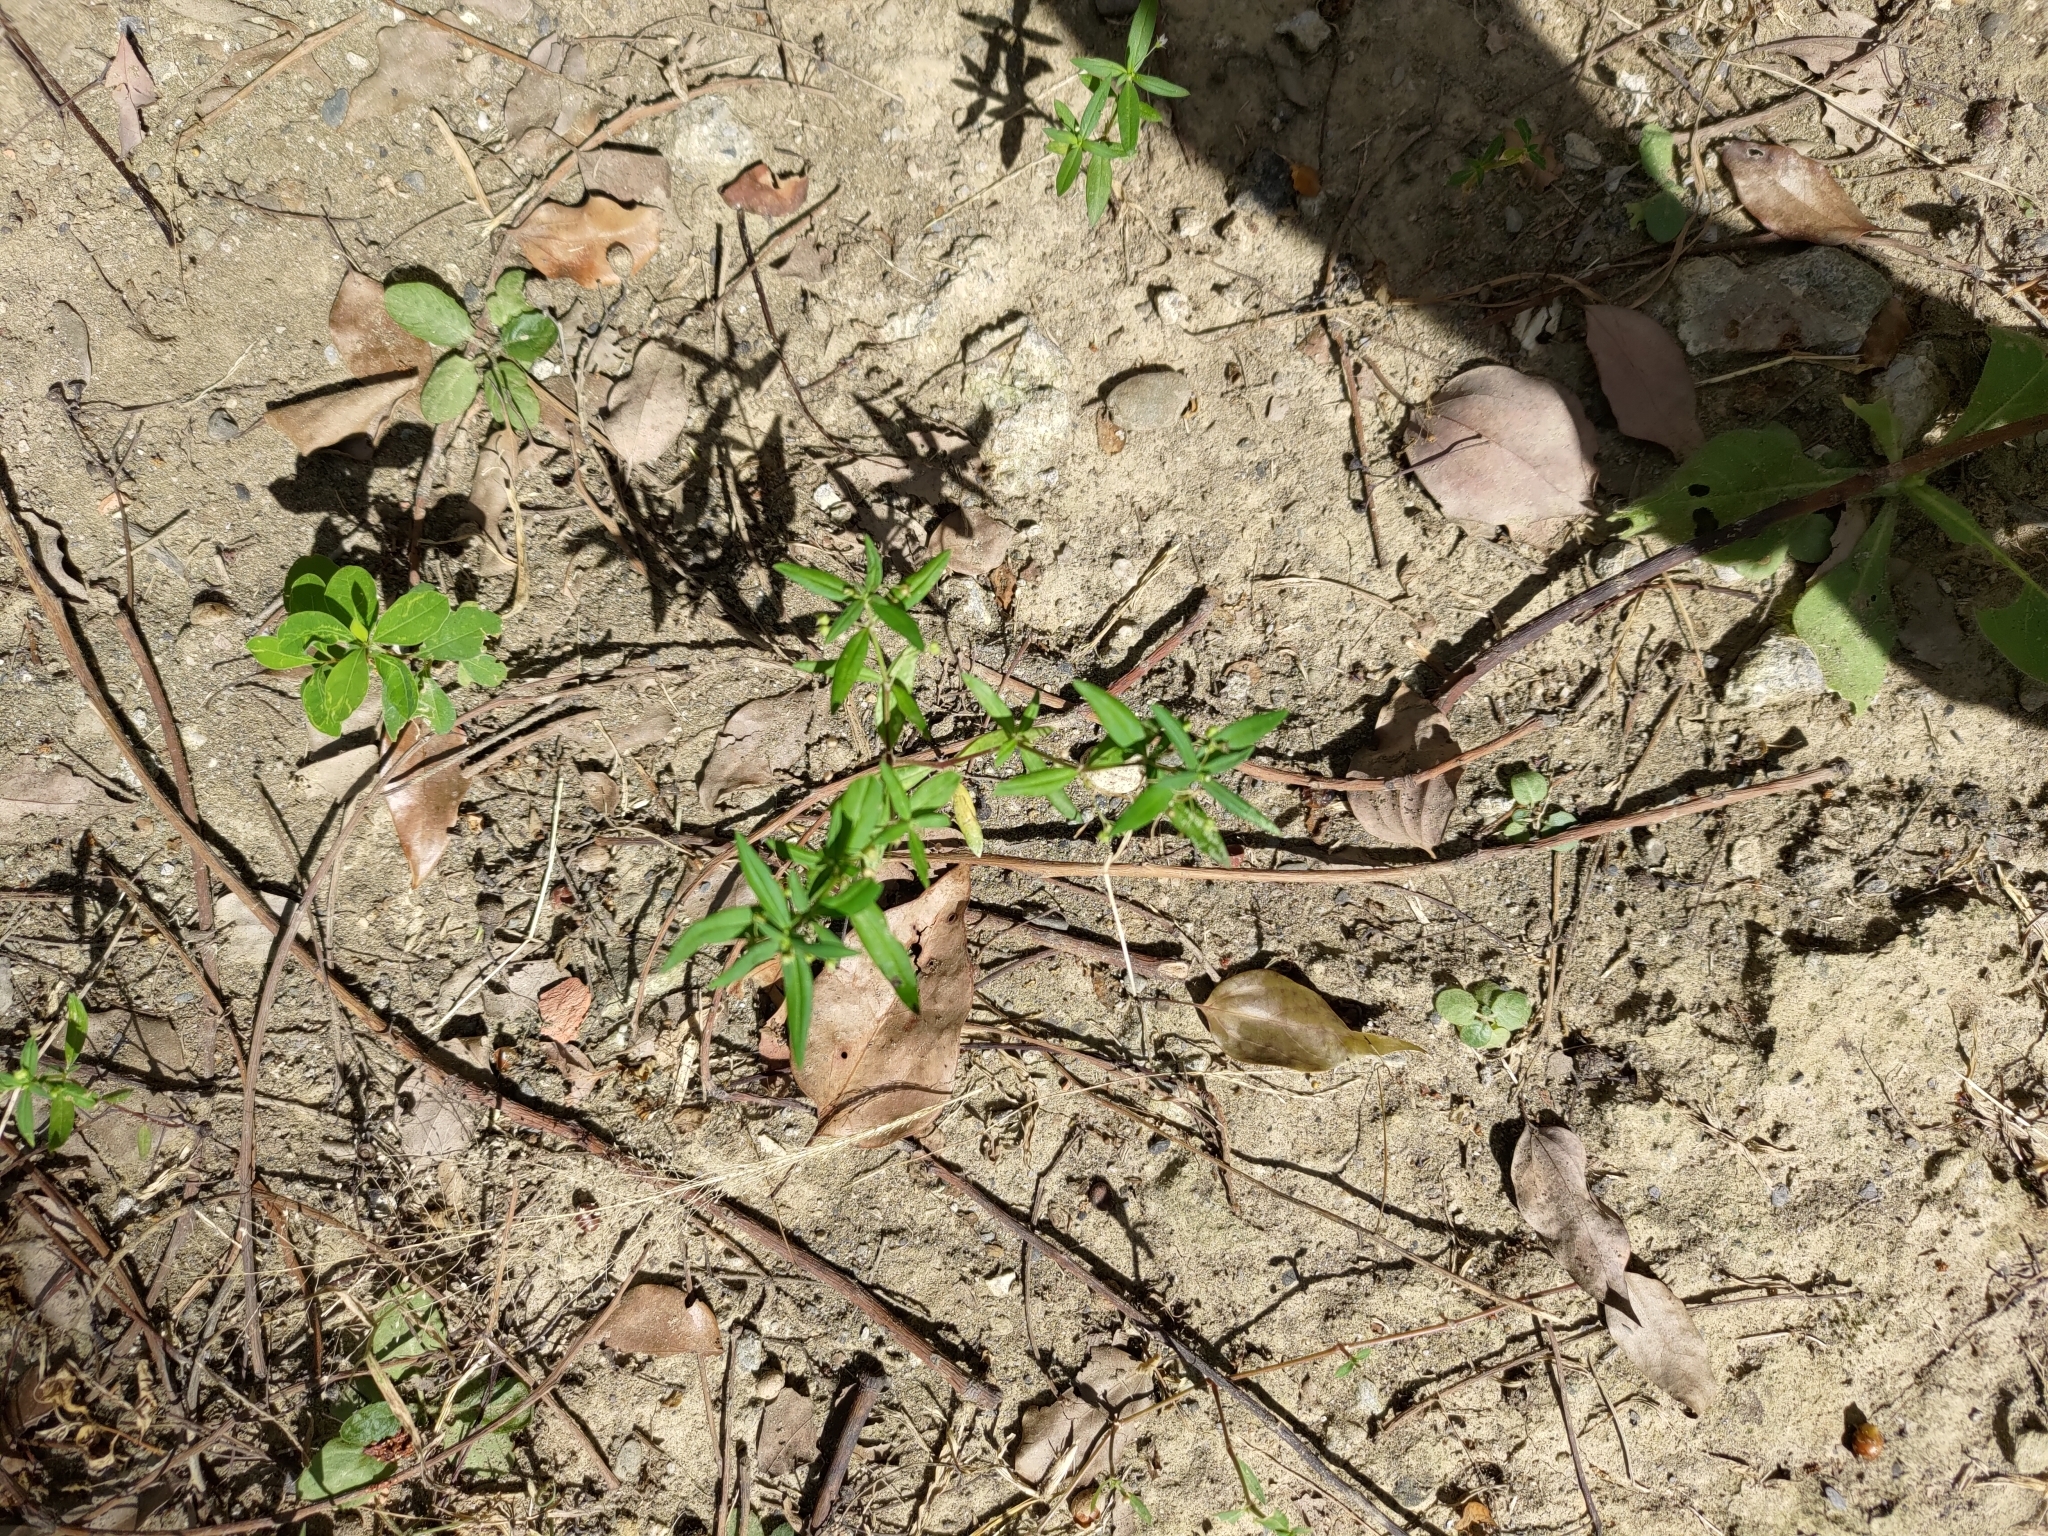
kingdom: Plantae
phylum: Tracheophyta
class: Magnoliopsida
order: Gentianales
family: Rubiaceae
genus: Oldenlandia
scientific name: Oldenlandia corymbosa
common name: Flat-top mille graines
